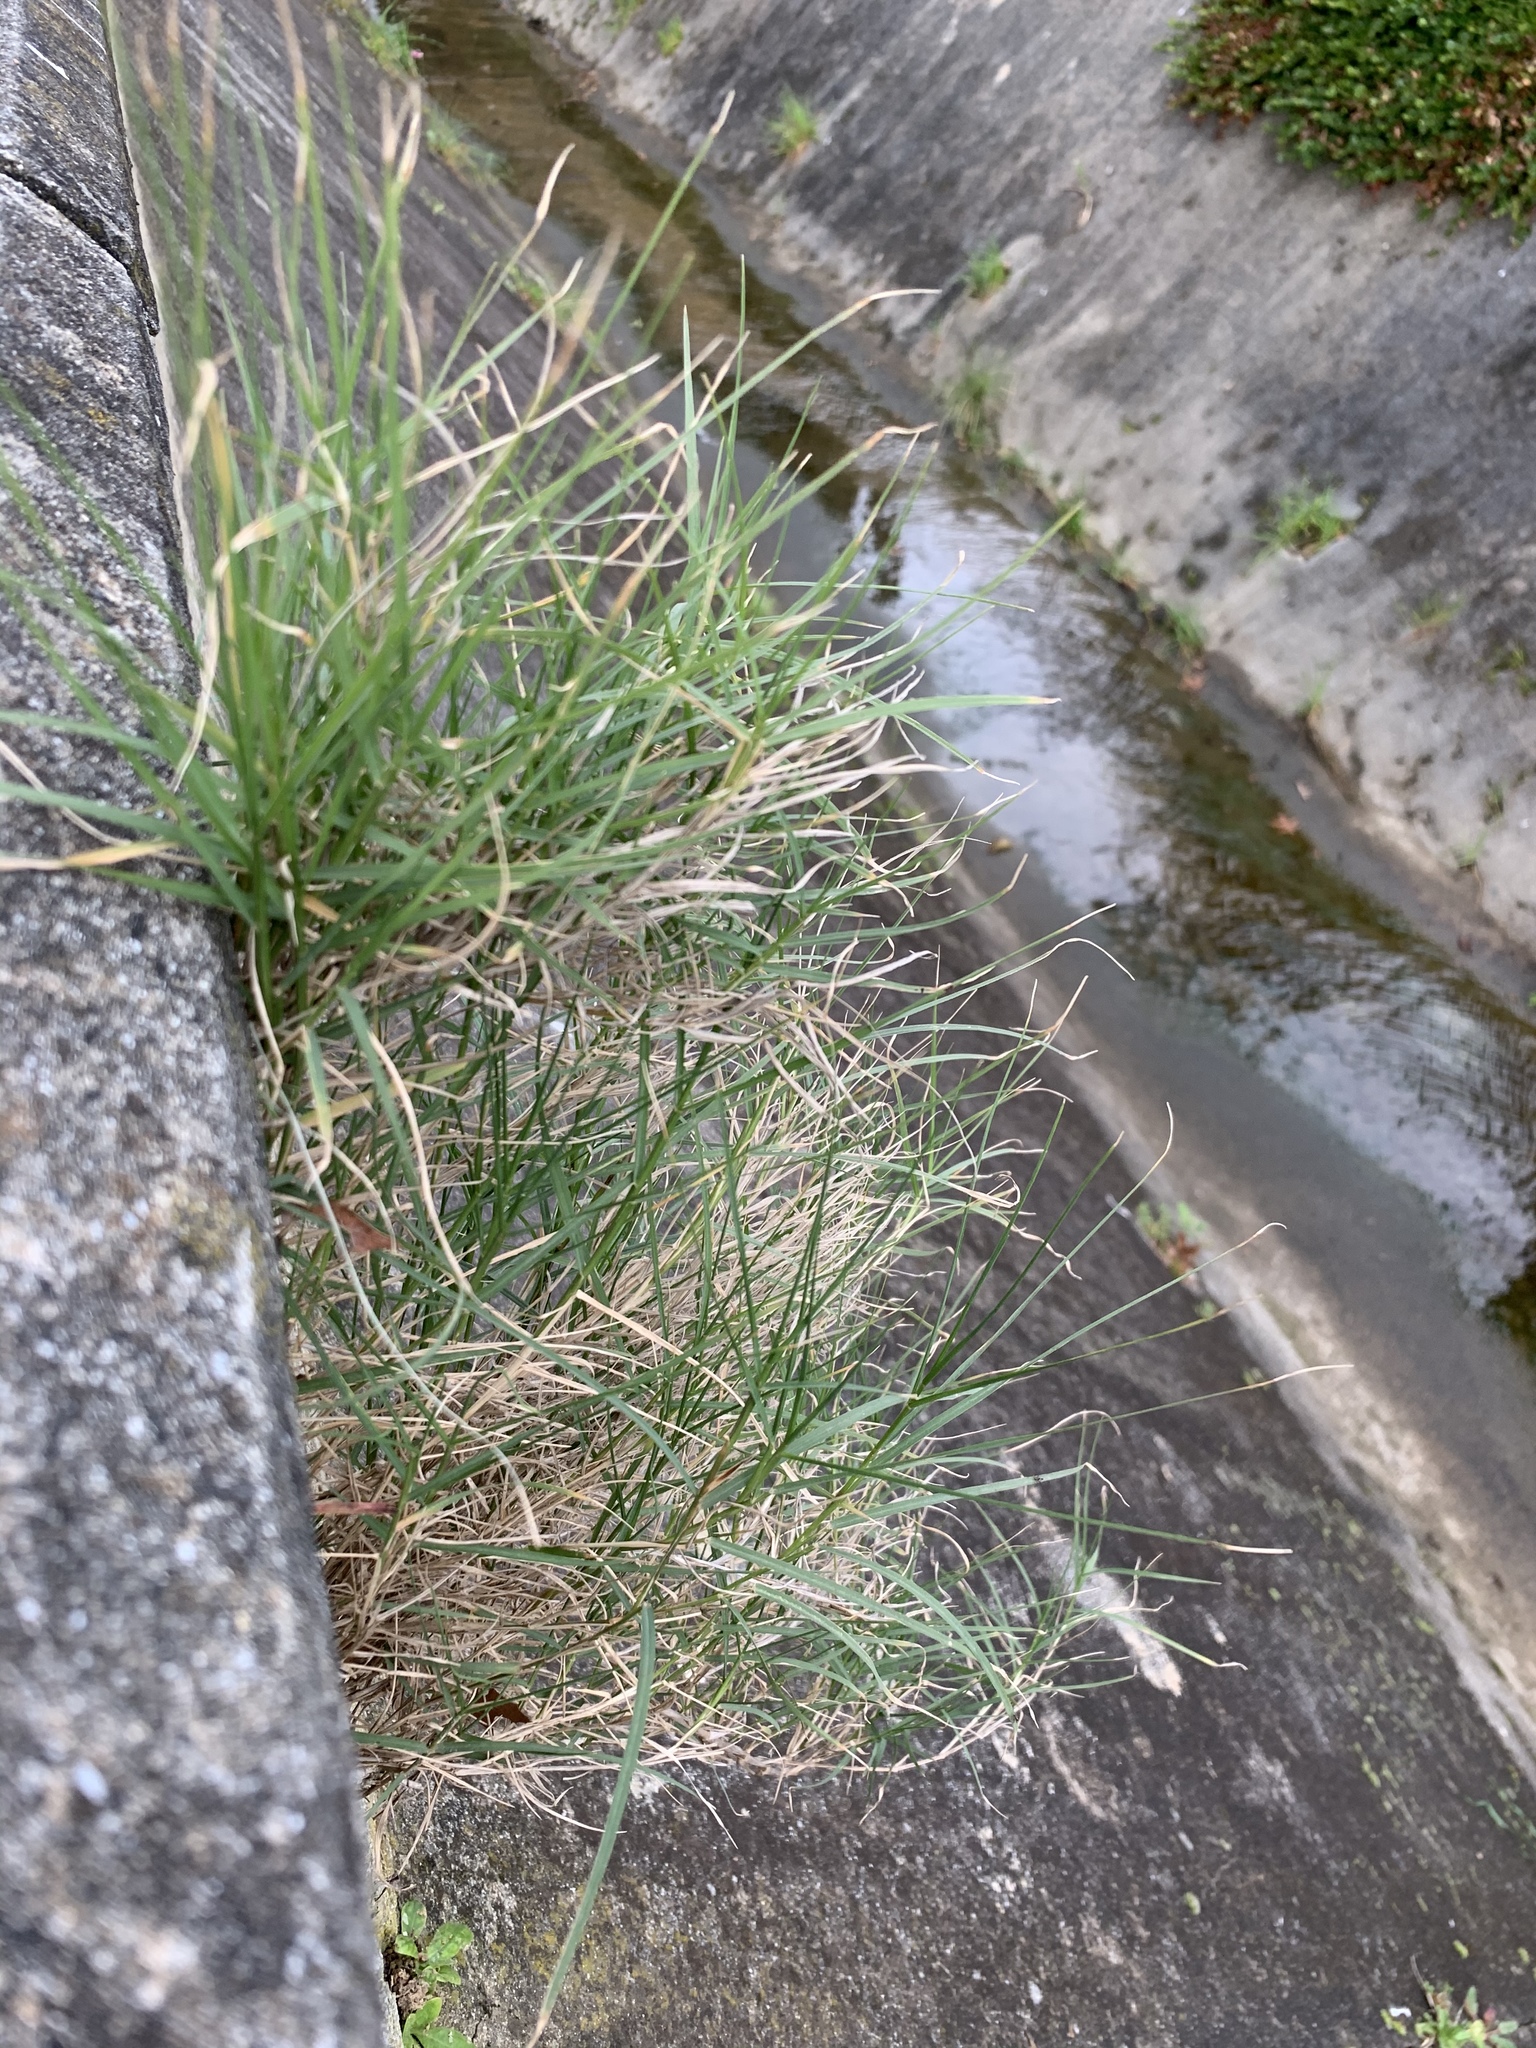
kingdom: Plantae
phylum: Tracheophyta
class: Liliopsida
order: Poales
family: Poaceae
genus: Cynodon
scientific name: Cynodon dactylon
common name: Bermuda grass
